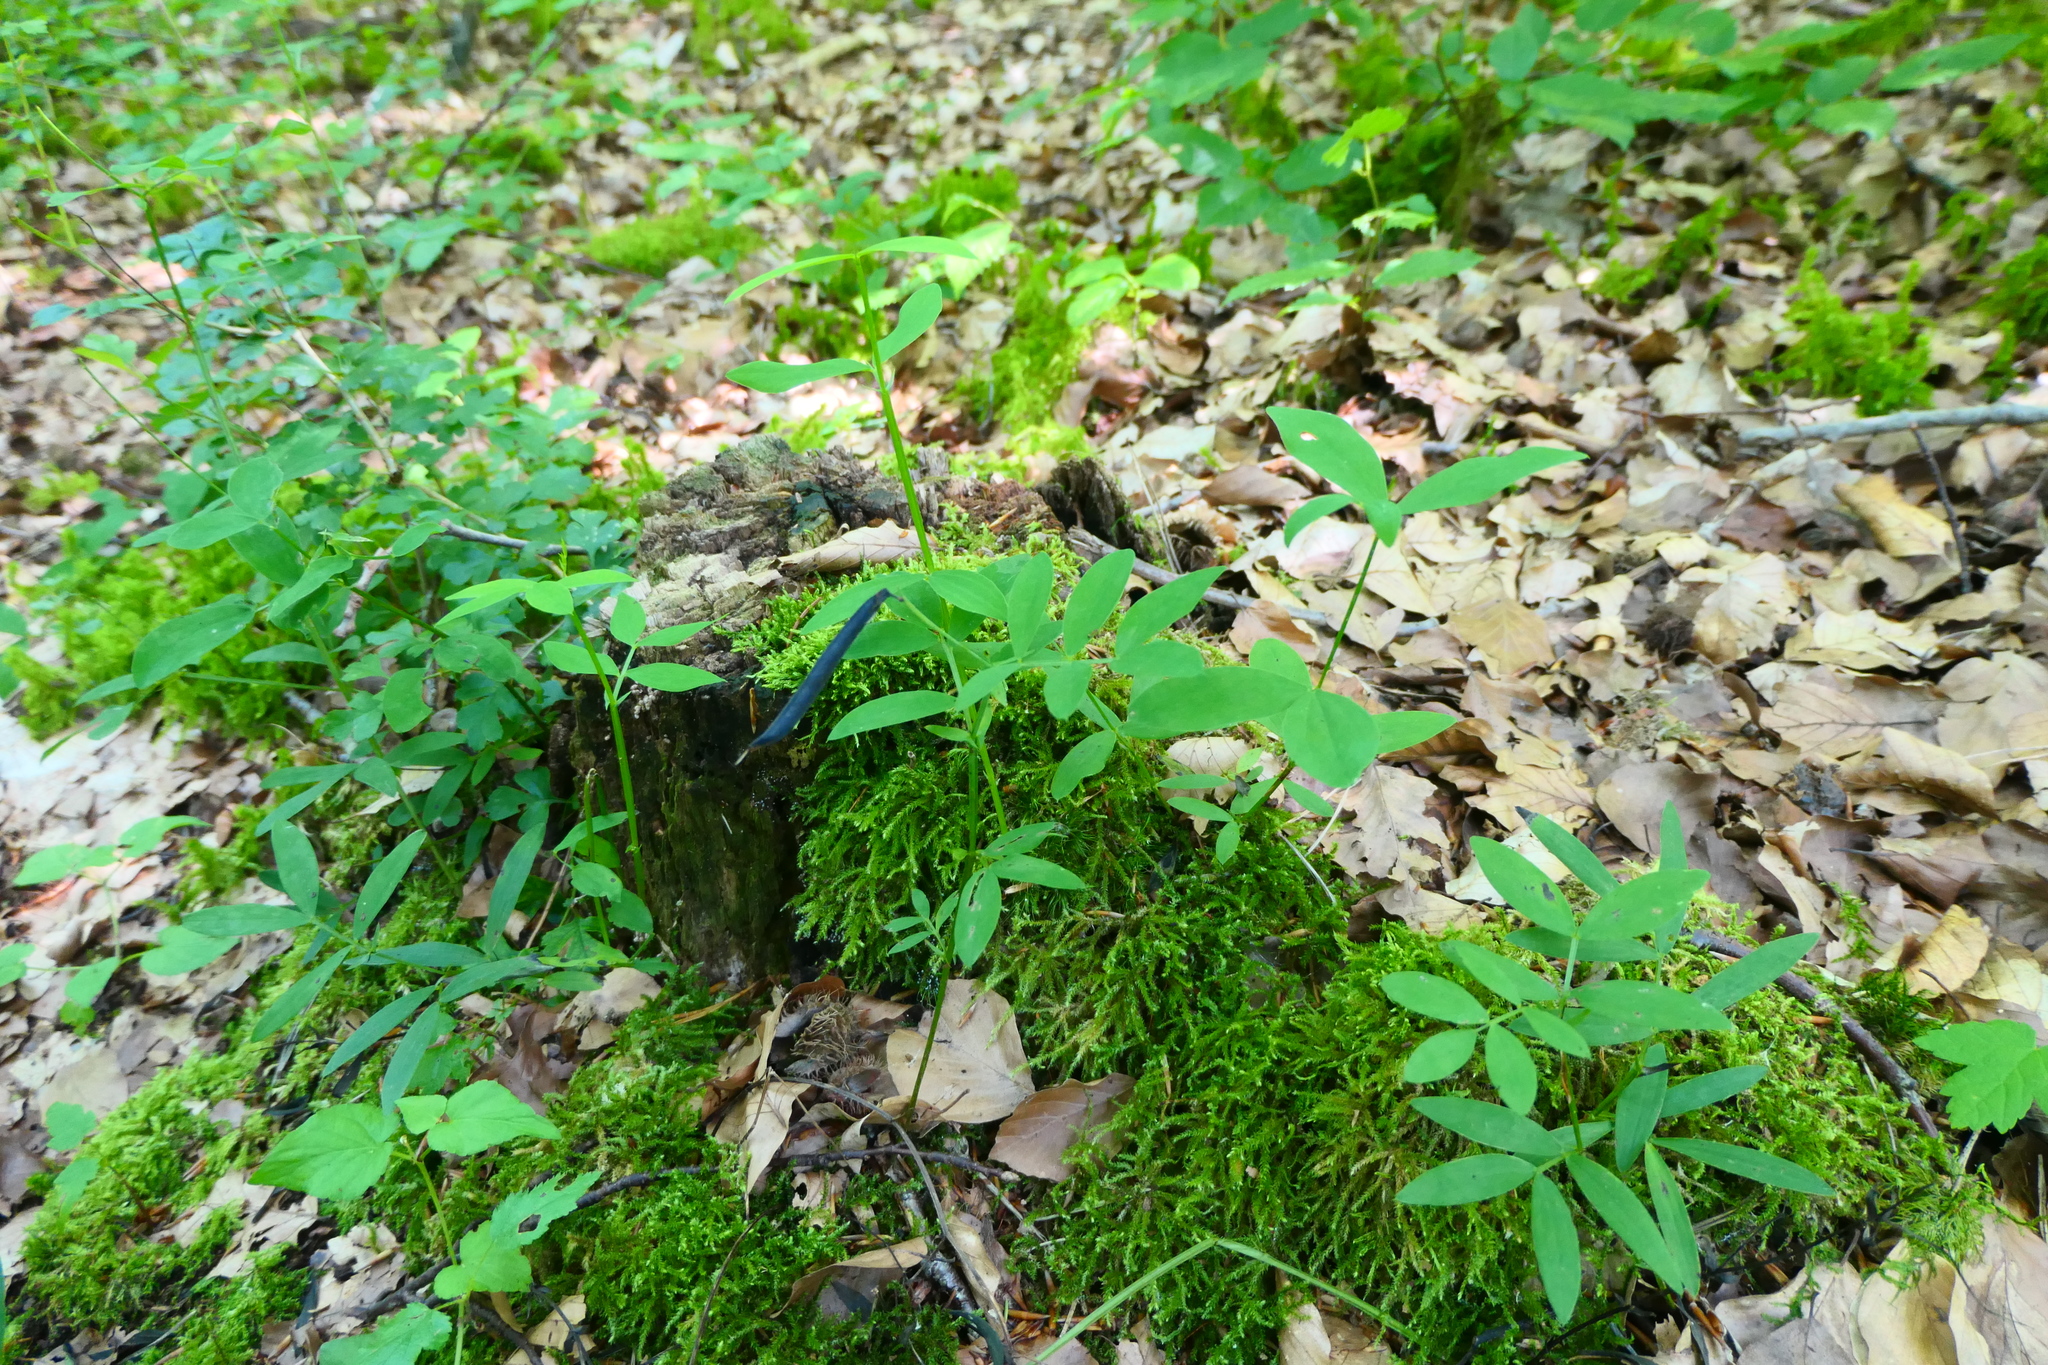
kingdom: Plantae
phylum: Tracheophyta
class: Magnoliopsida
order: Fabales
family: Fabaceae
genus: Lathyrus
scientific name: Lathyrus linifolius
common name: Bitter-vetch
